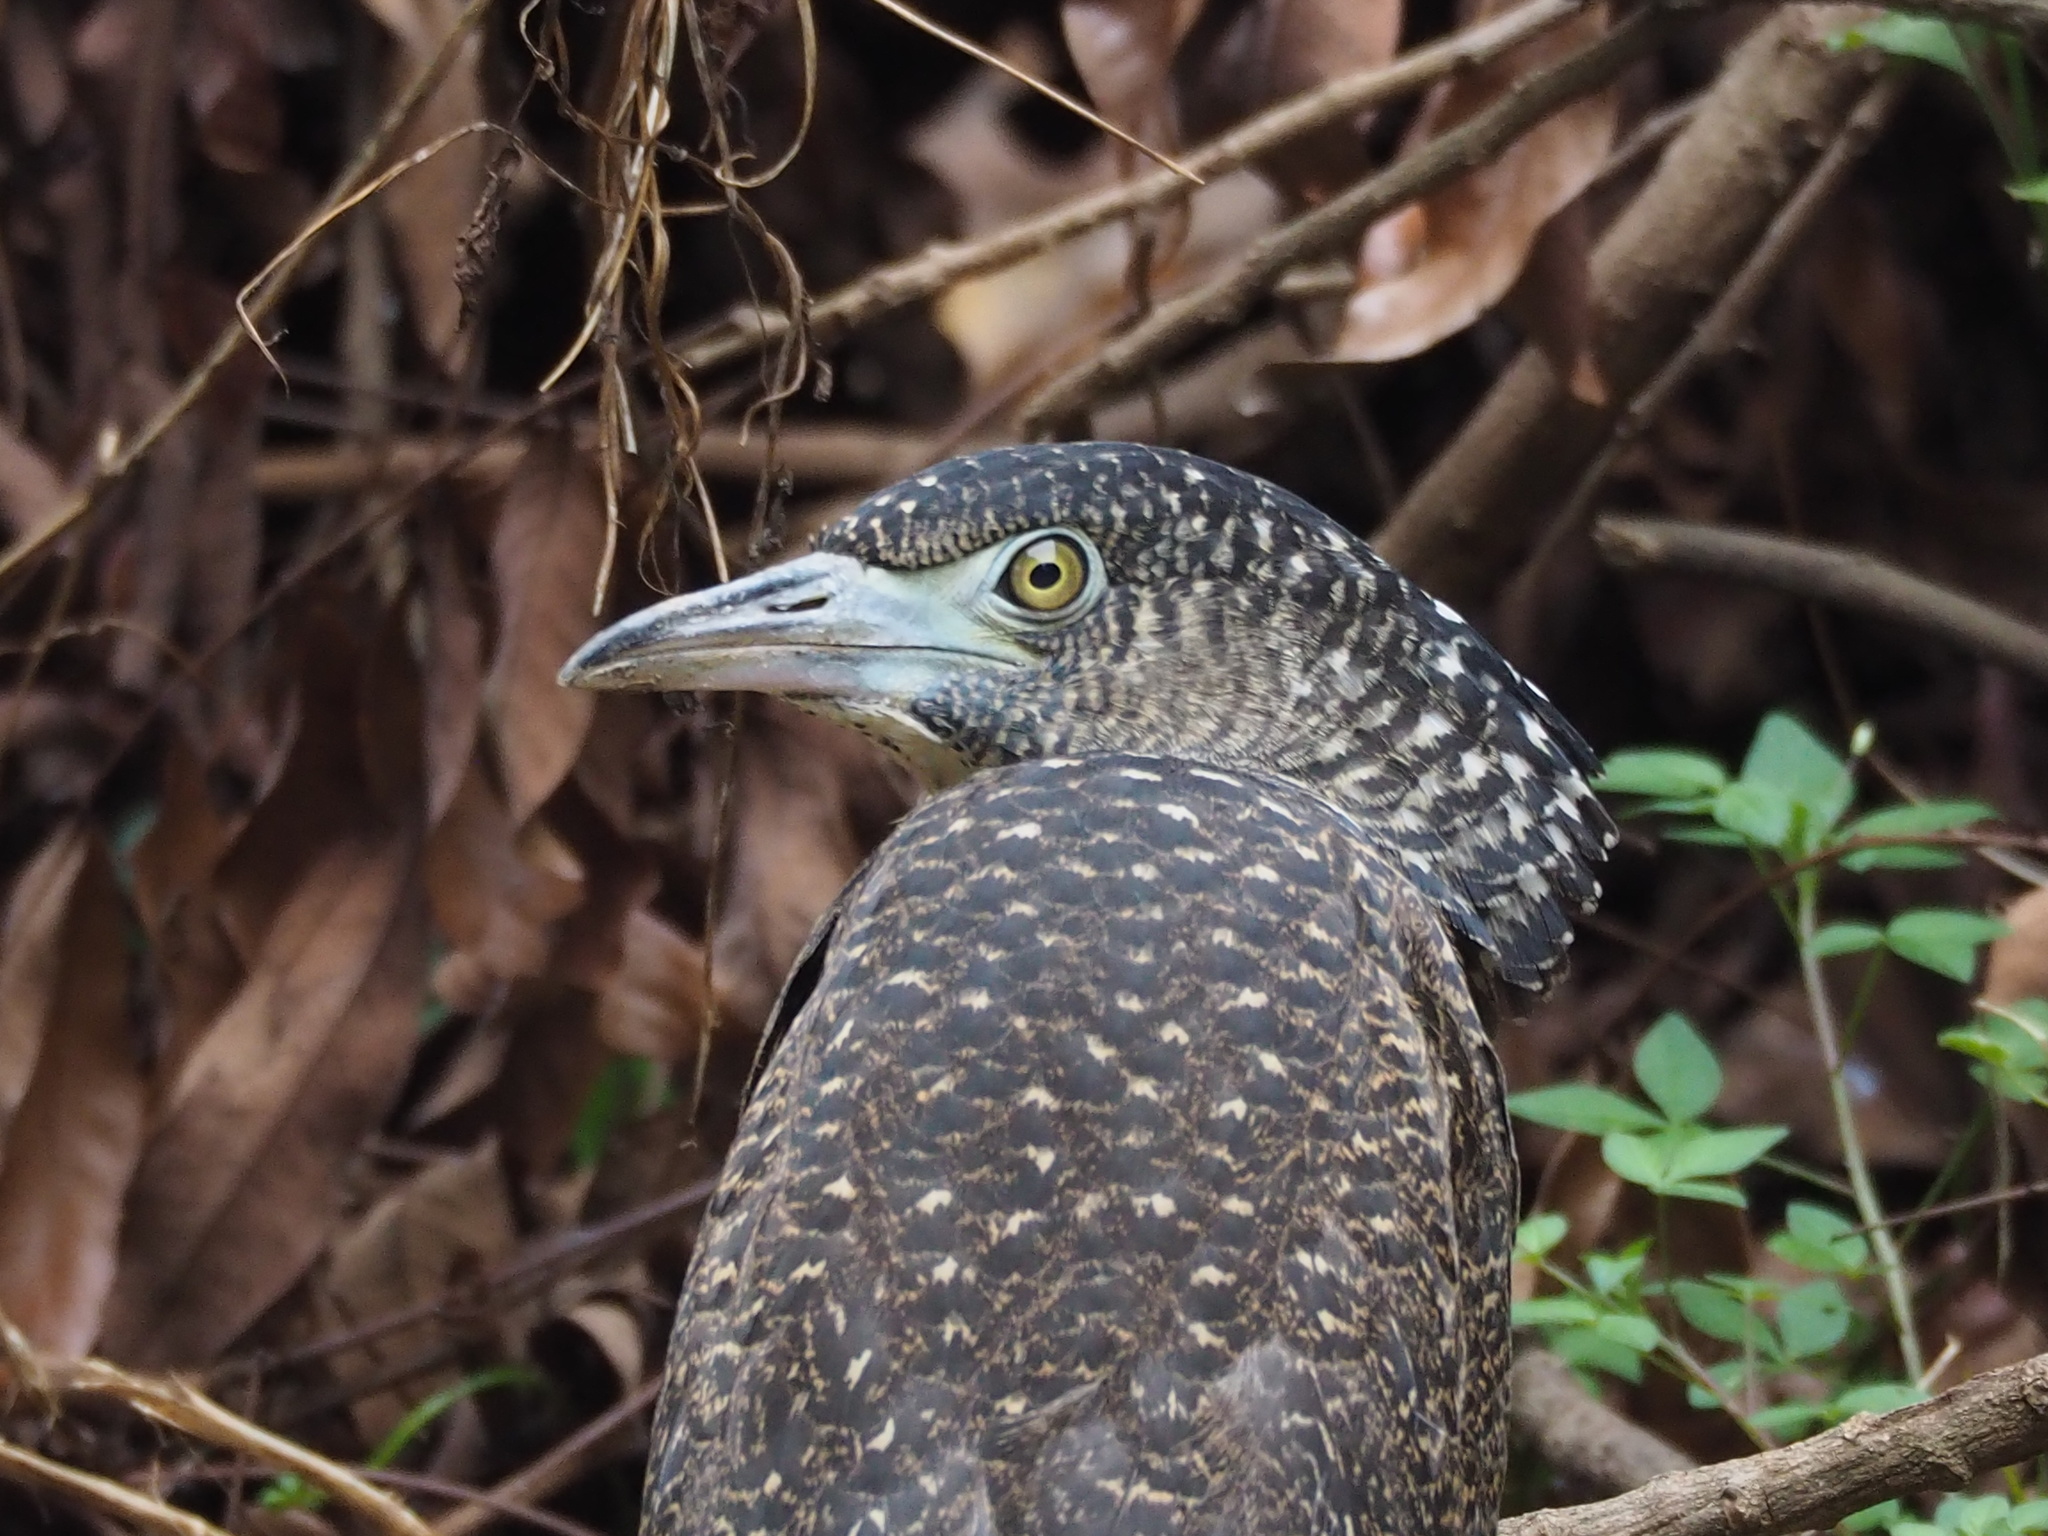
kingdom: Animalia
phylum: Chordata
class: Aves
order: Pelecaniformes
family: Ardeidae
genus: Gorsachius
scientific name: Gorsachius melanolophus
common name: Malayan night heron
